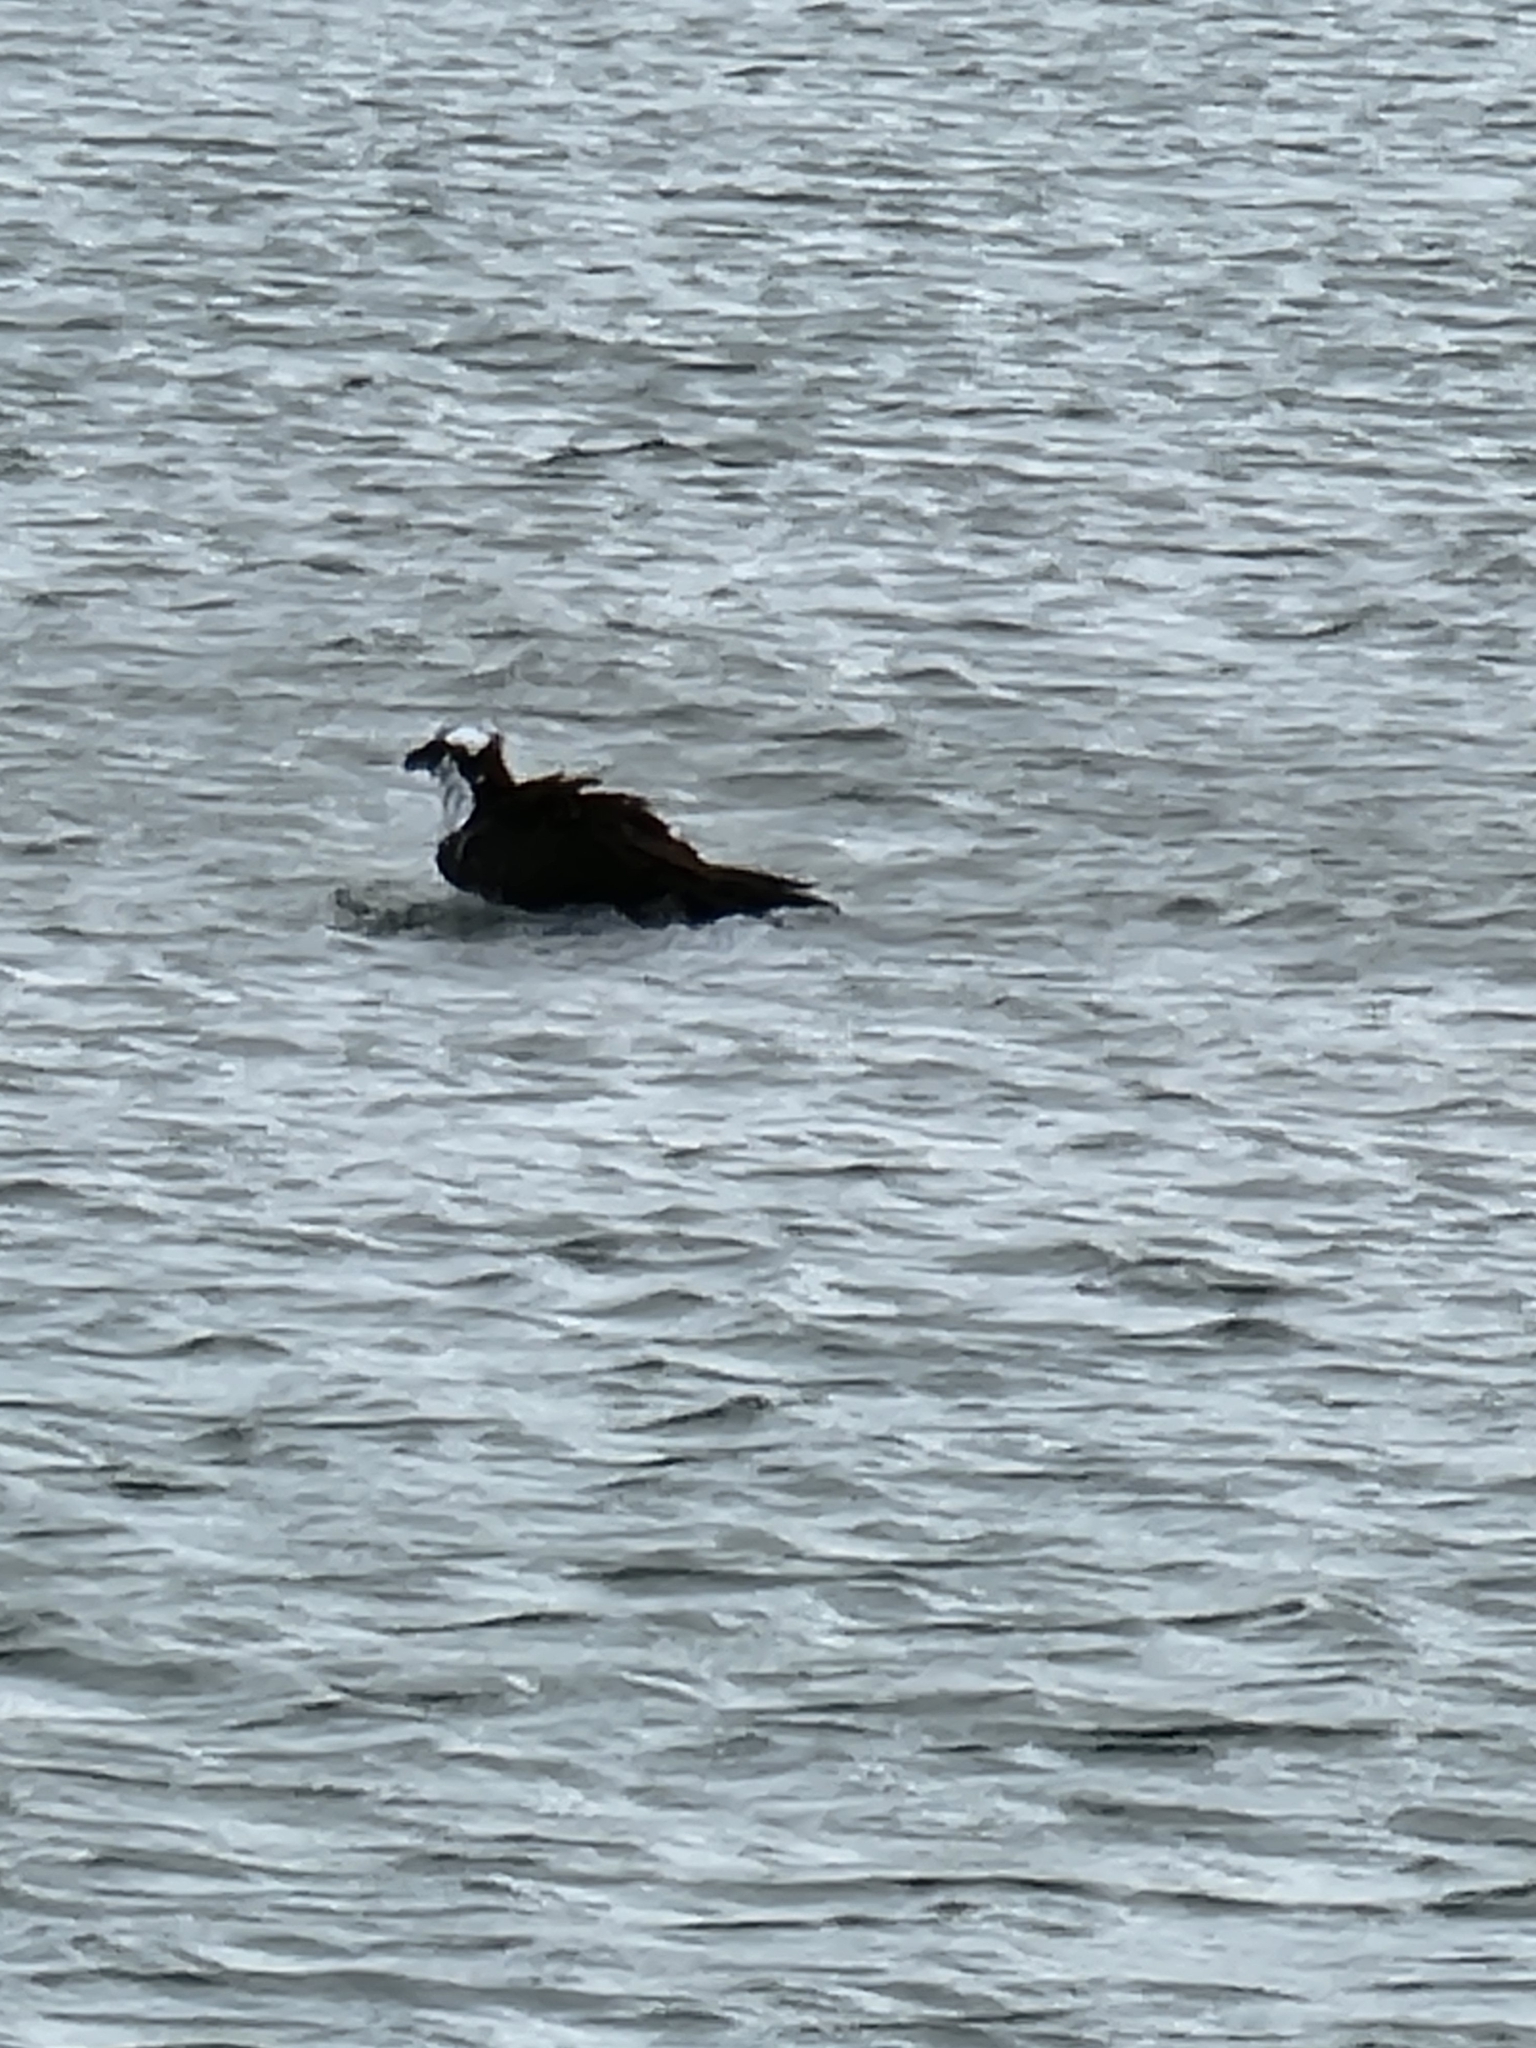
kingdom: Animalia
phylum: Chordata
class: Aves
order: Accipitriformes
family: Pandionidae
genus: Pandion
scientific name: Pandion haliaetus
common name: Osprey
